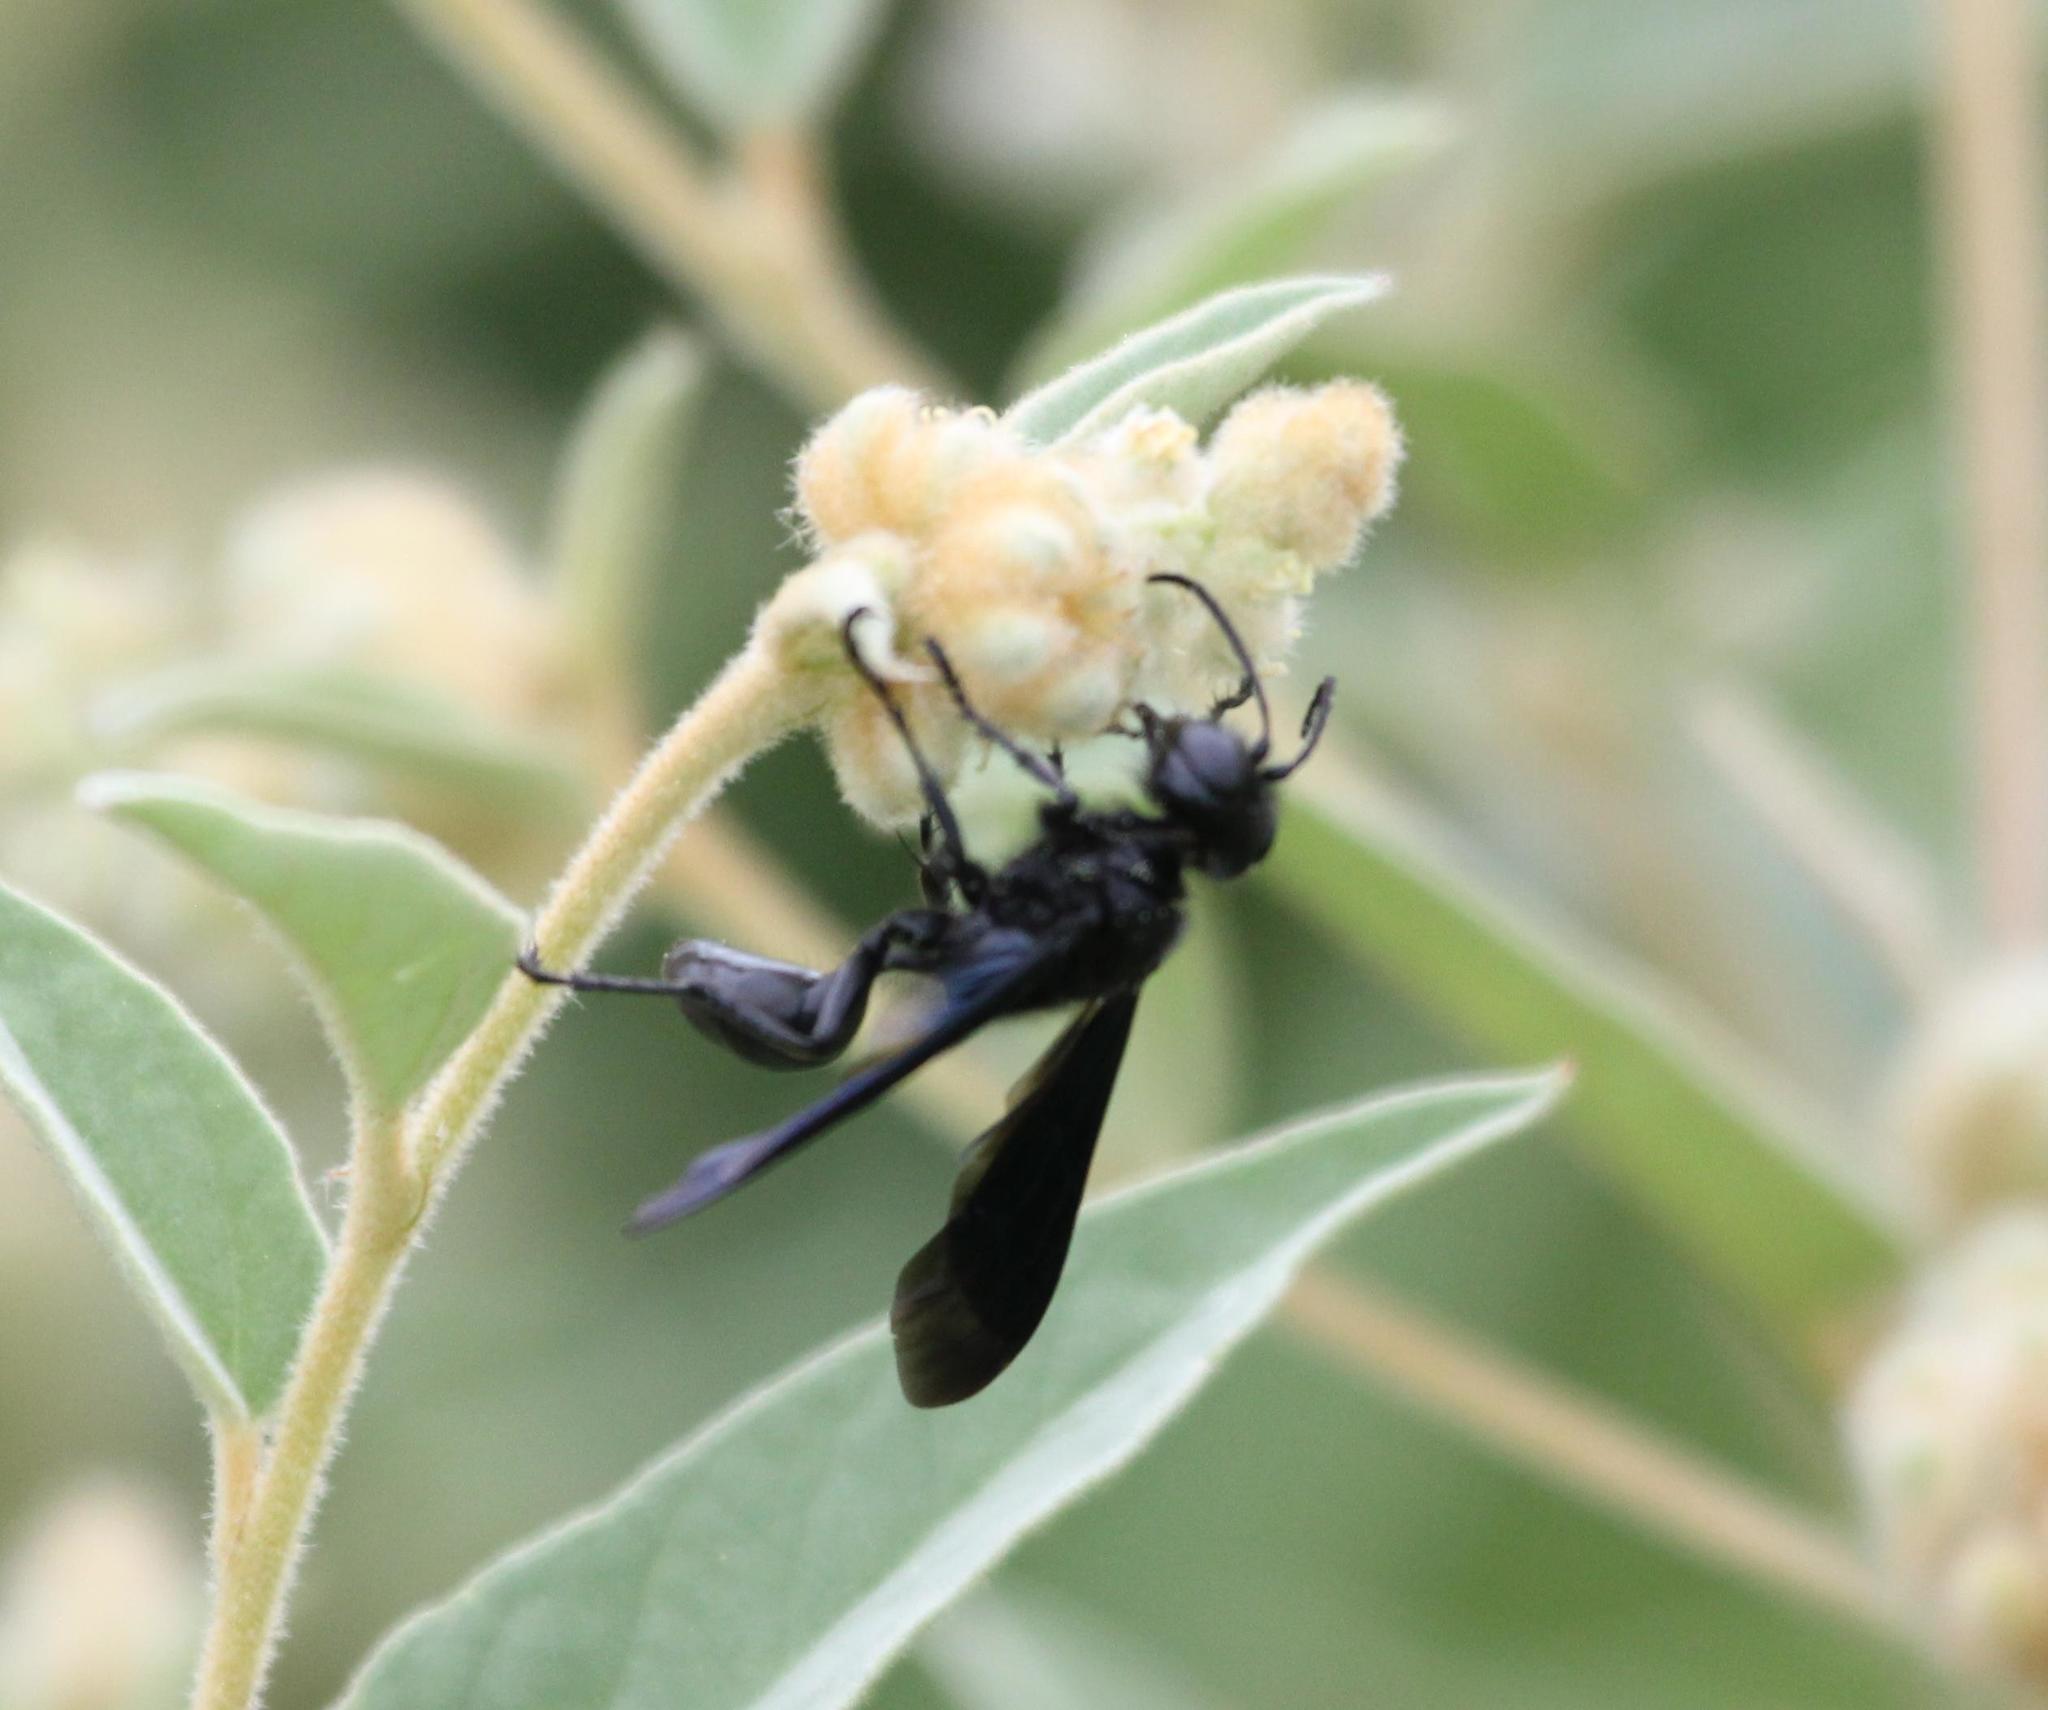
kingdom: Animalia
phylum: Arthropoda
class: Insecta
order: Hymenoptera
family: Sphecidae
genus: Isodontia
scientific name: Isodontia philadelphica
